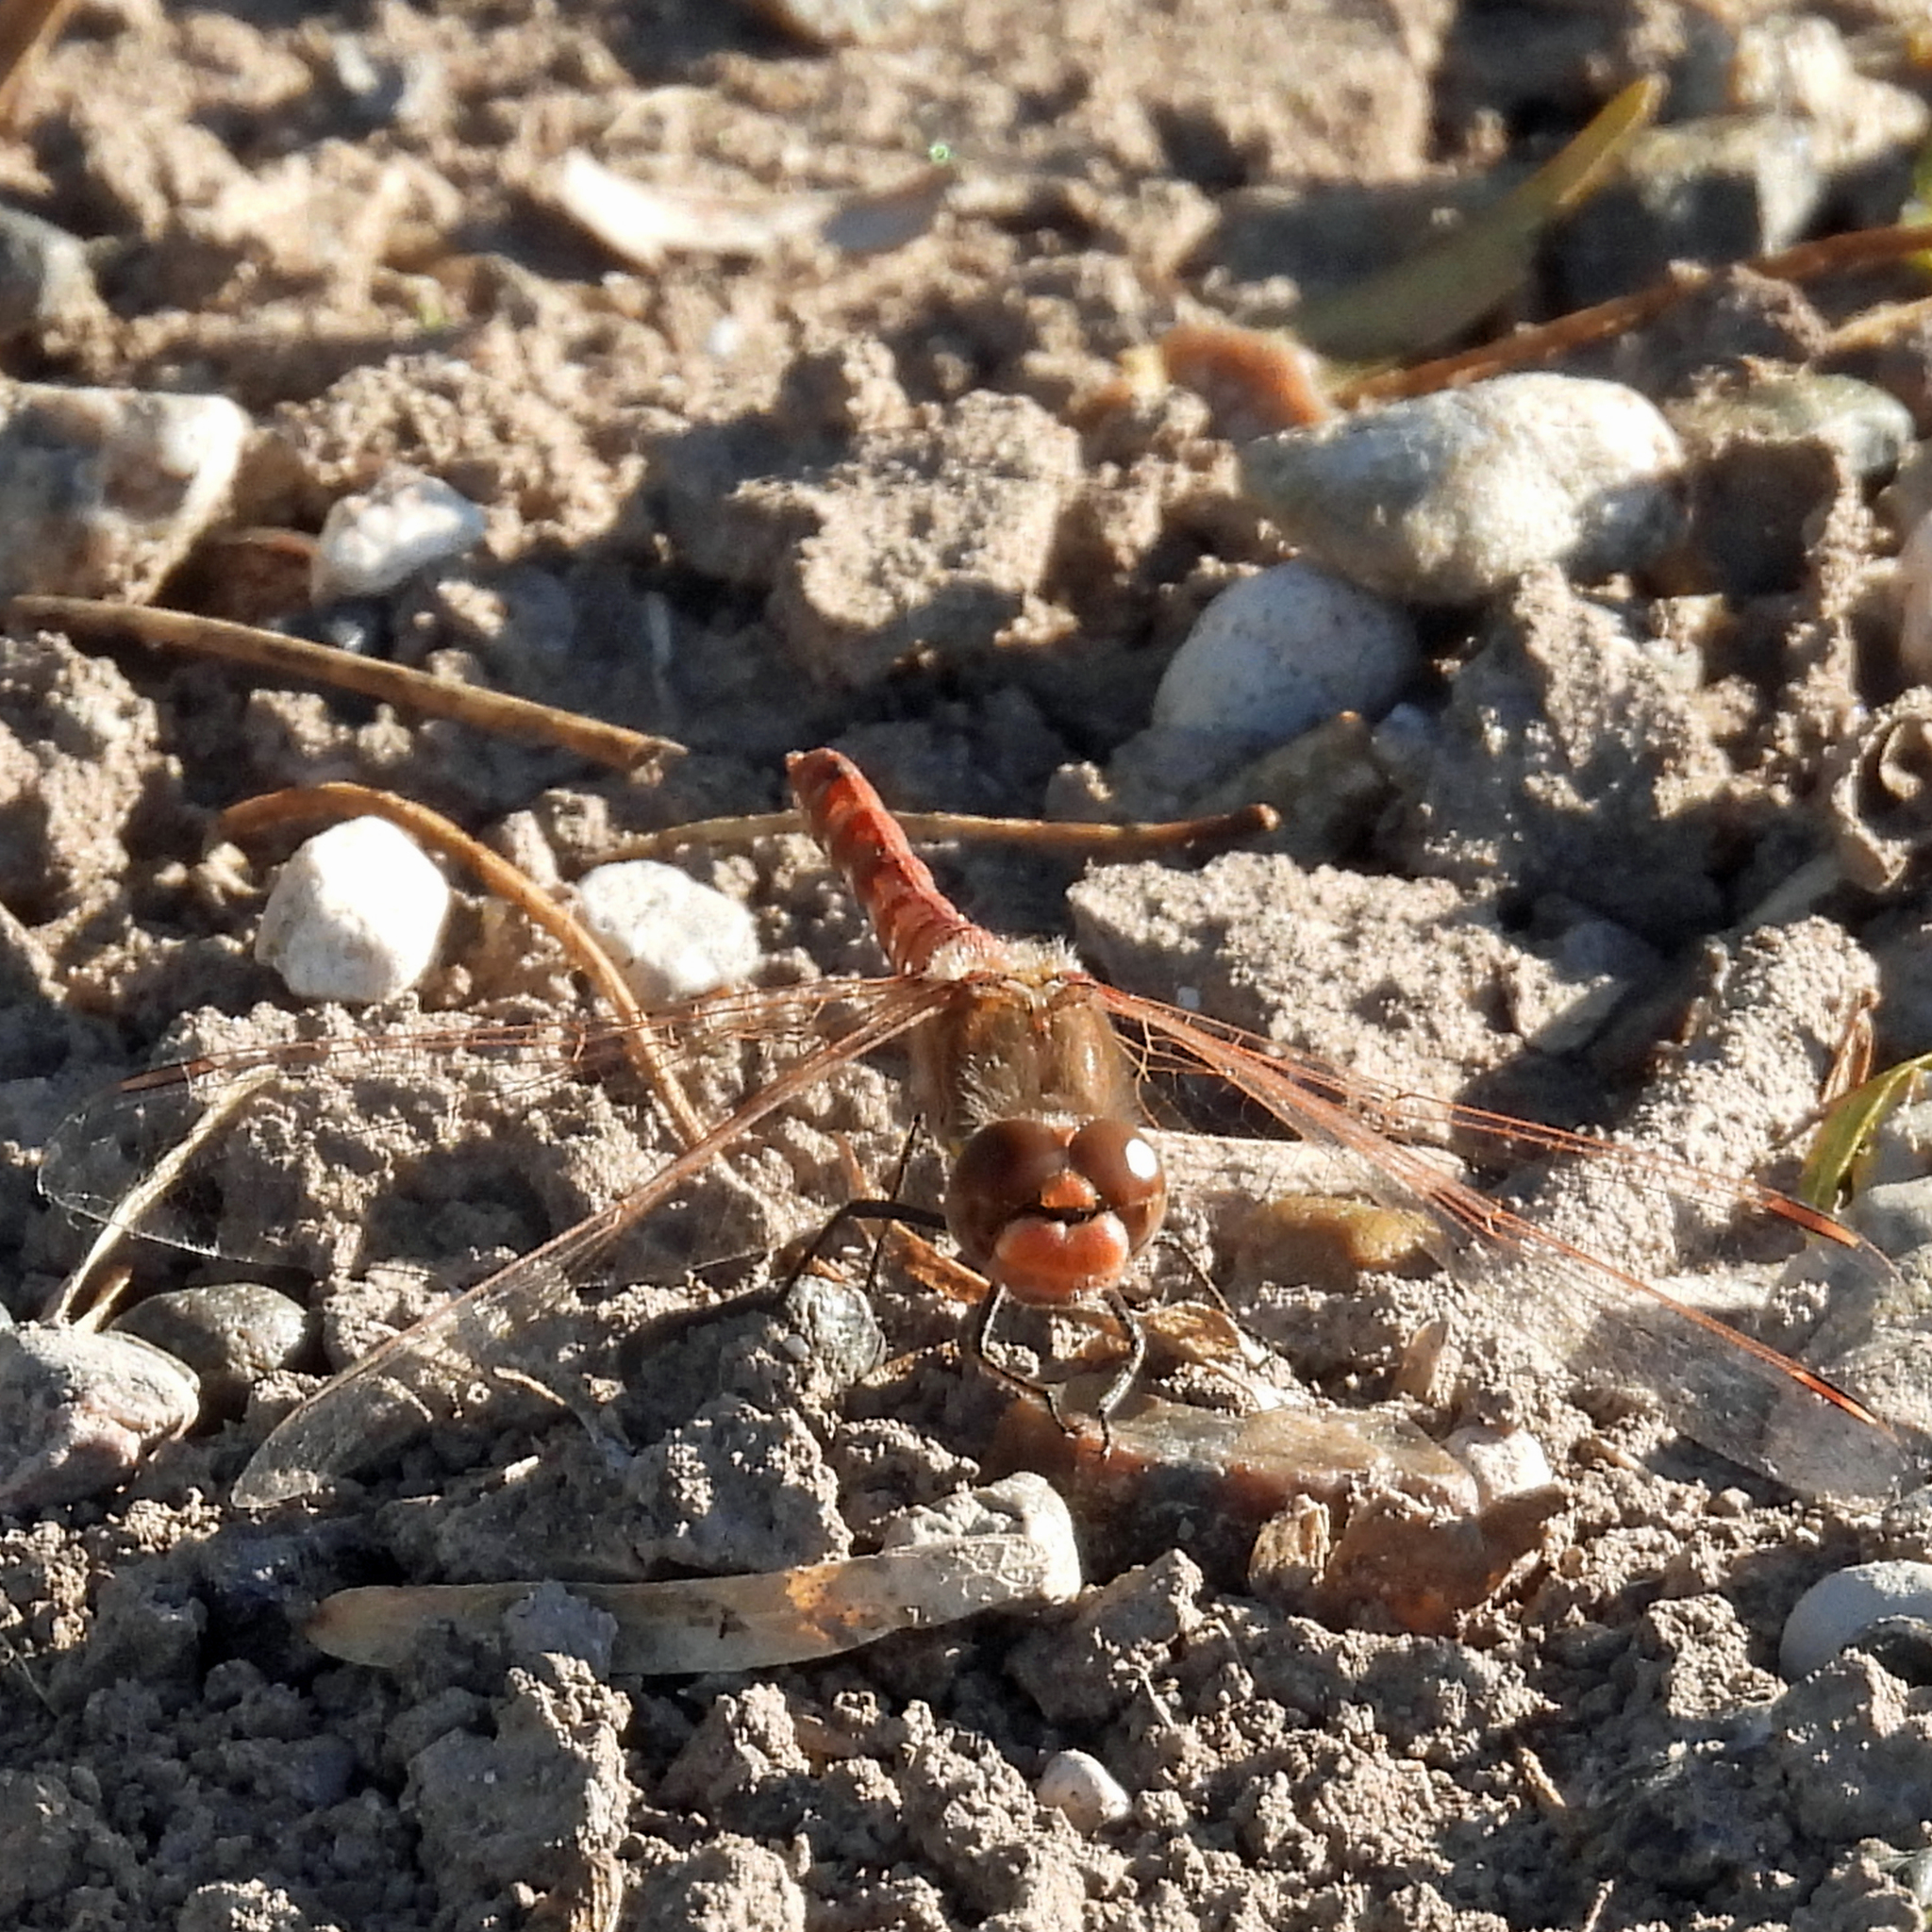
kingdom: Animalia
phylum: Arthropoda
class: Insecta
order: Odonata
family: Libellulidae
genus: Sympetrum
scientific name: Sympetrum corruptum
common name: Variegated meadowhawk
